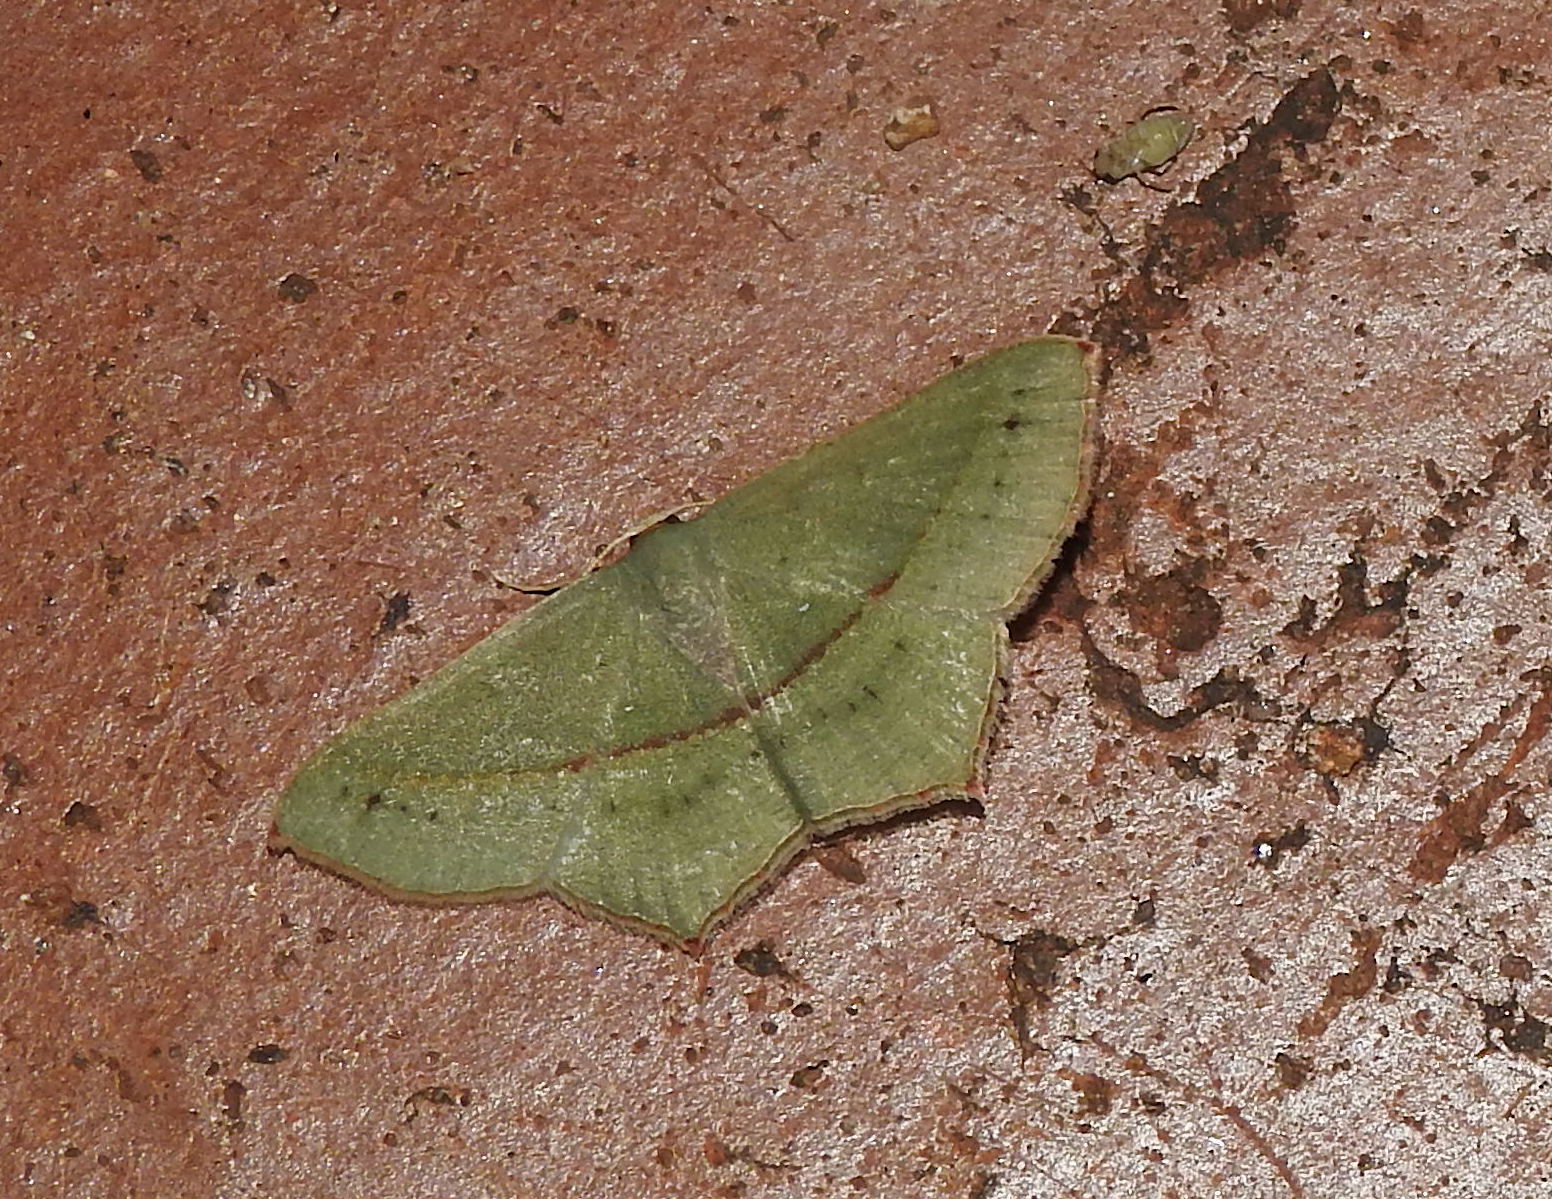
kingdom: Animalia
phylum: Arthropoda
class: Insecta
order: Lepidoptera
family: Geometridae
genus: Traminda
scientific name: Traminda mundissima
